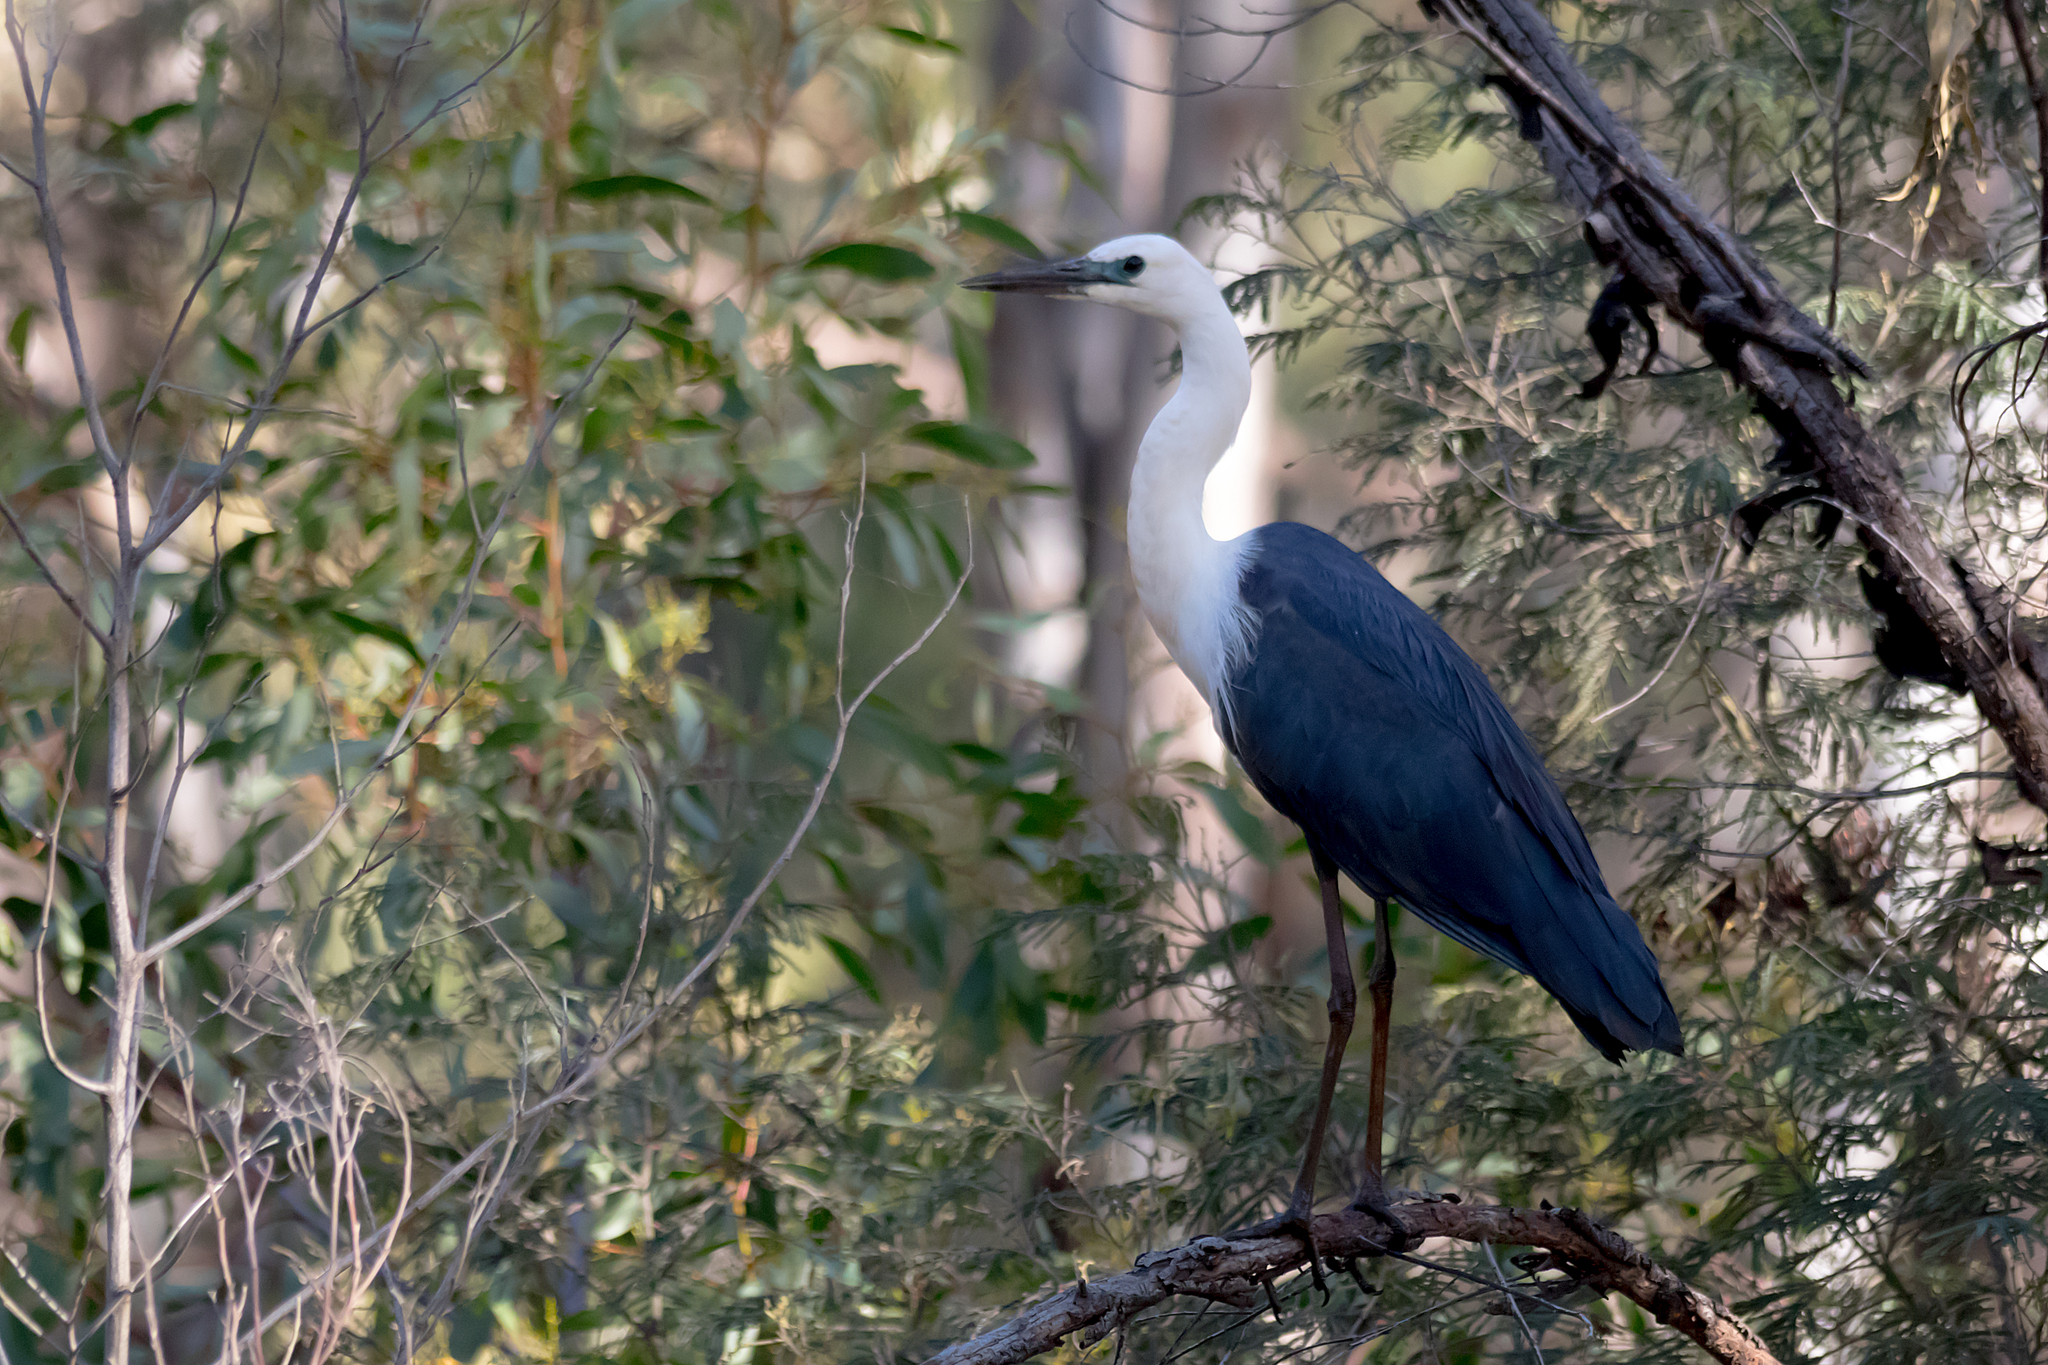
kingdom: Animalia
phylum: Chordata
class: Aves
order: Pelecaniformes
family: Ardeidae
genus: Ardea
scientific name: Ardea pacifica
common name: White-necked heron
